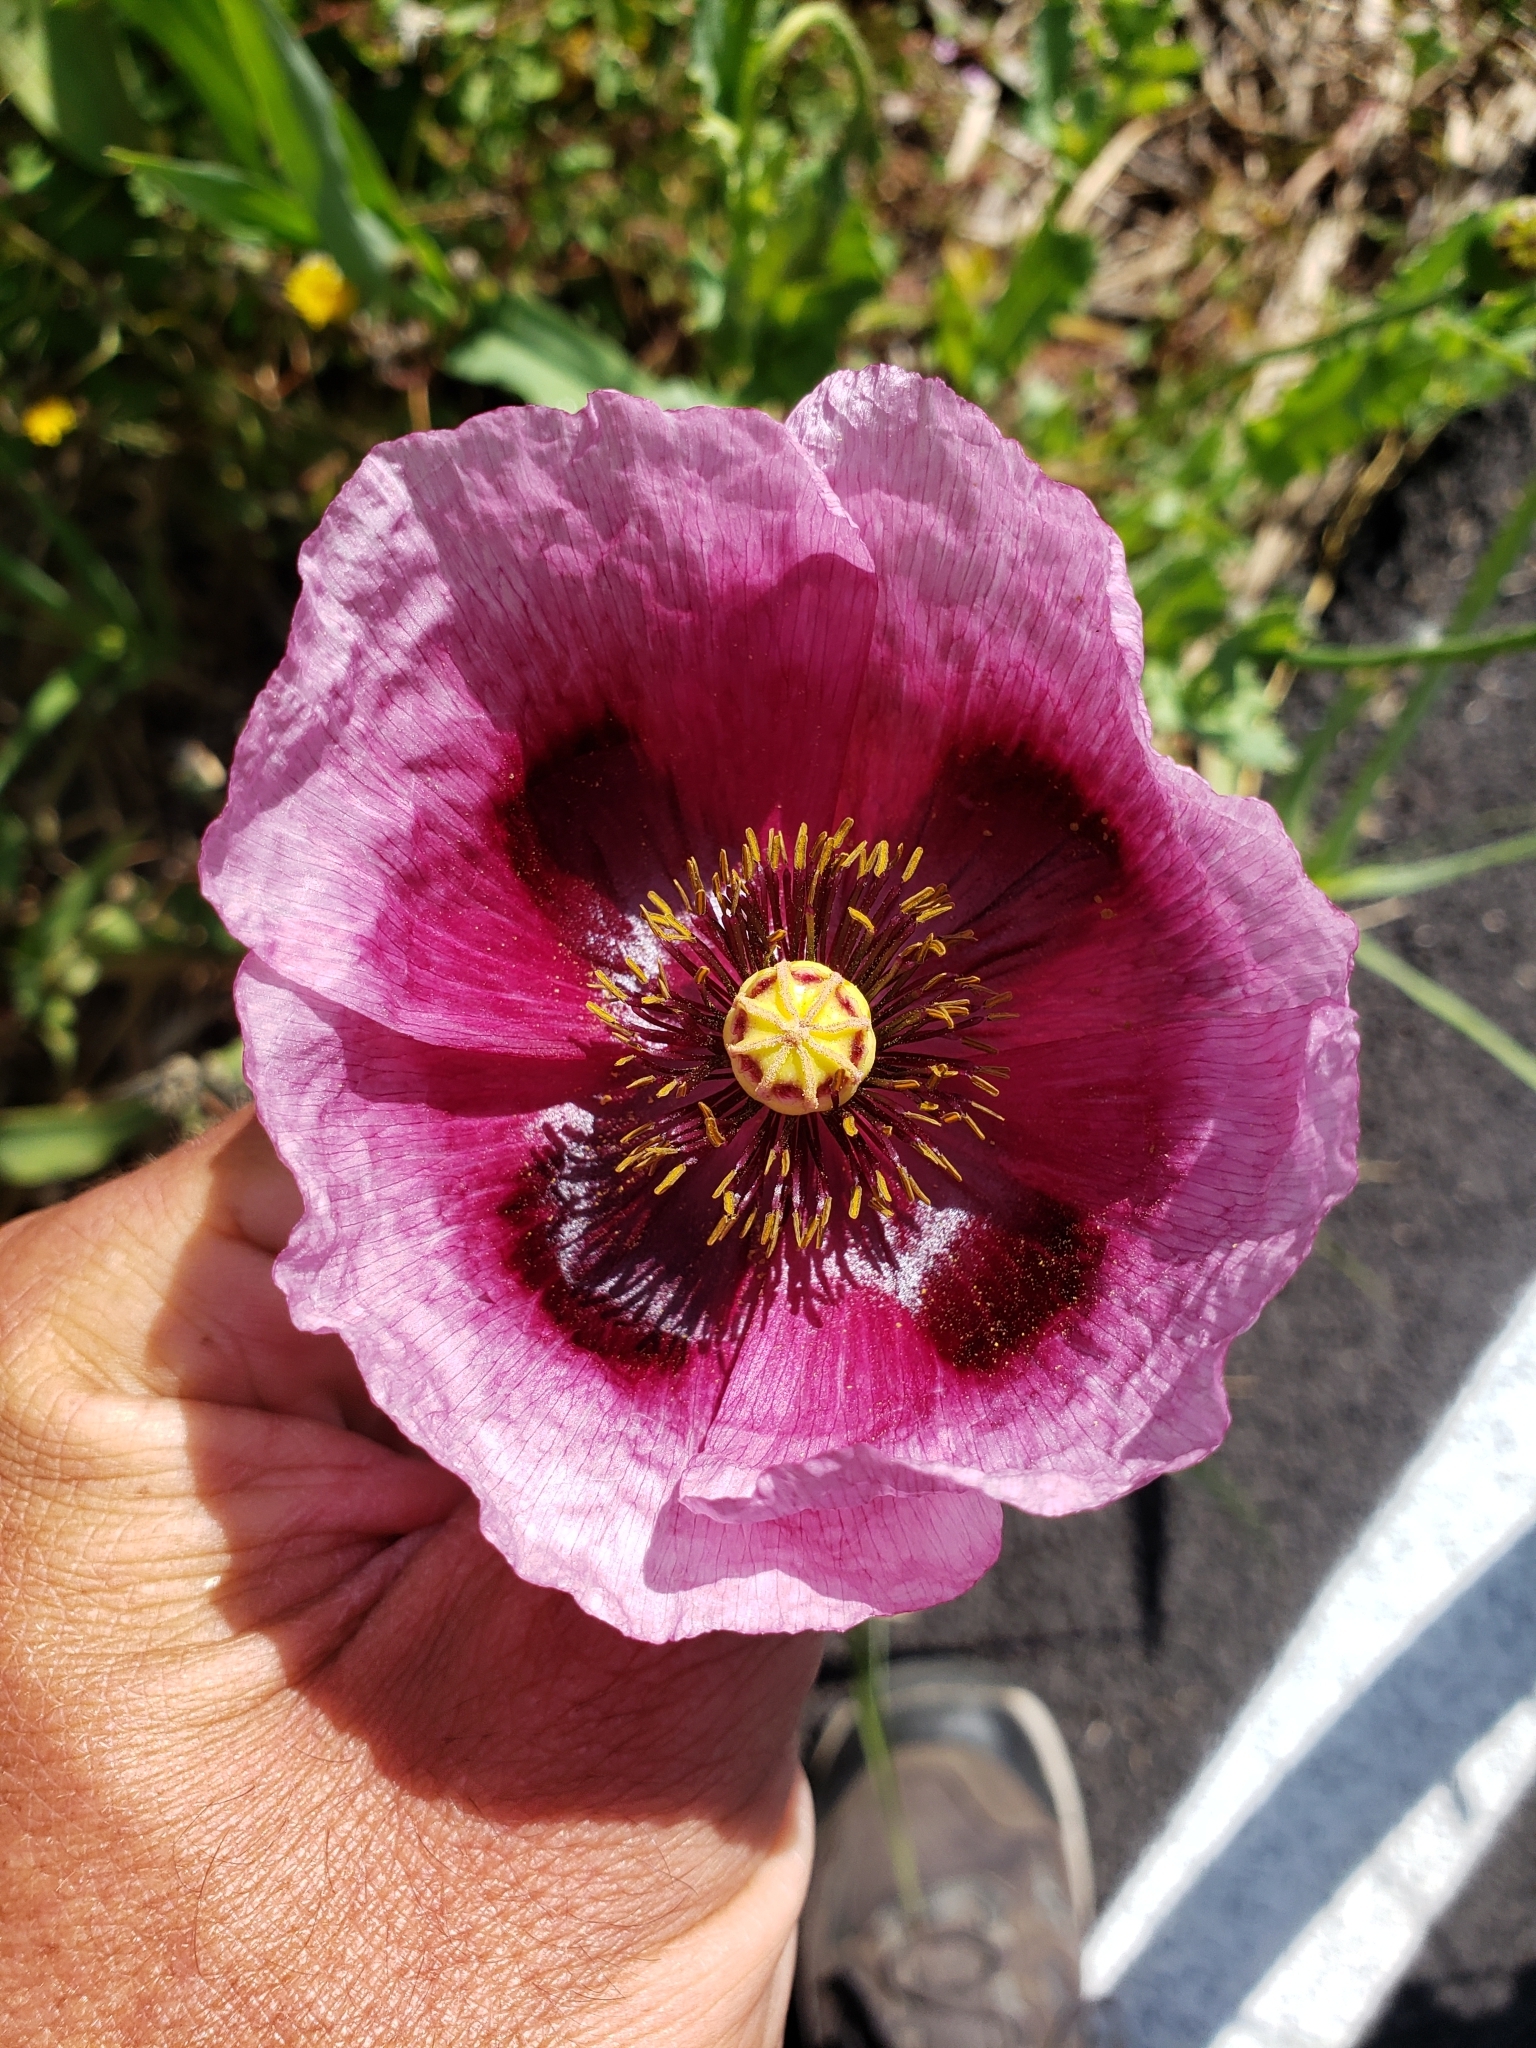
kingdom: Plantae
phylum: Tracheophyta
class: Magnoliopsida
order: Ranunculales
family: Papaveraceae
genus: Papaver
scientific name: Papaver somniferum
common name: Opium poppy
